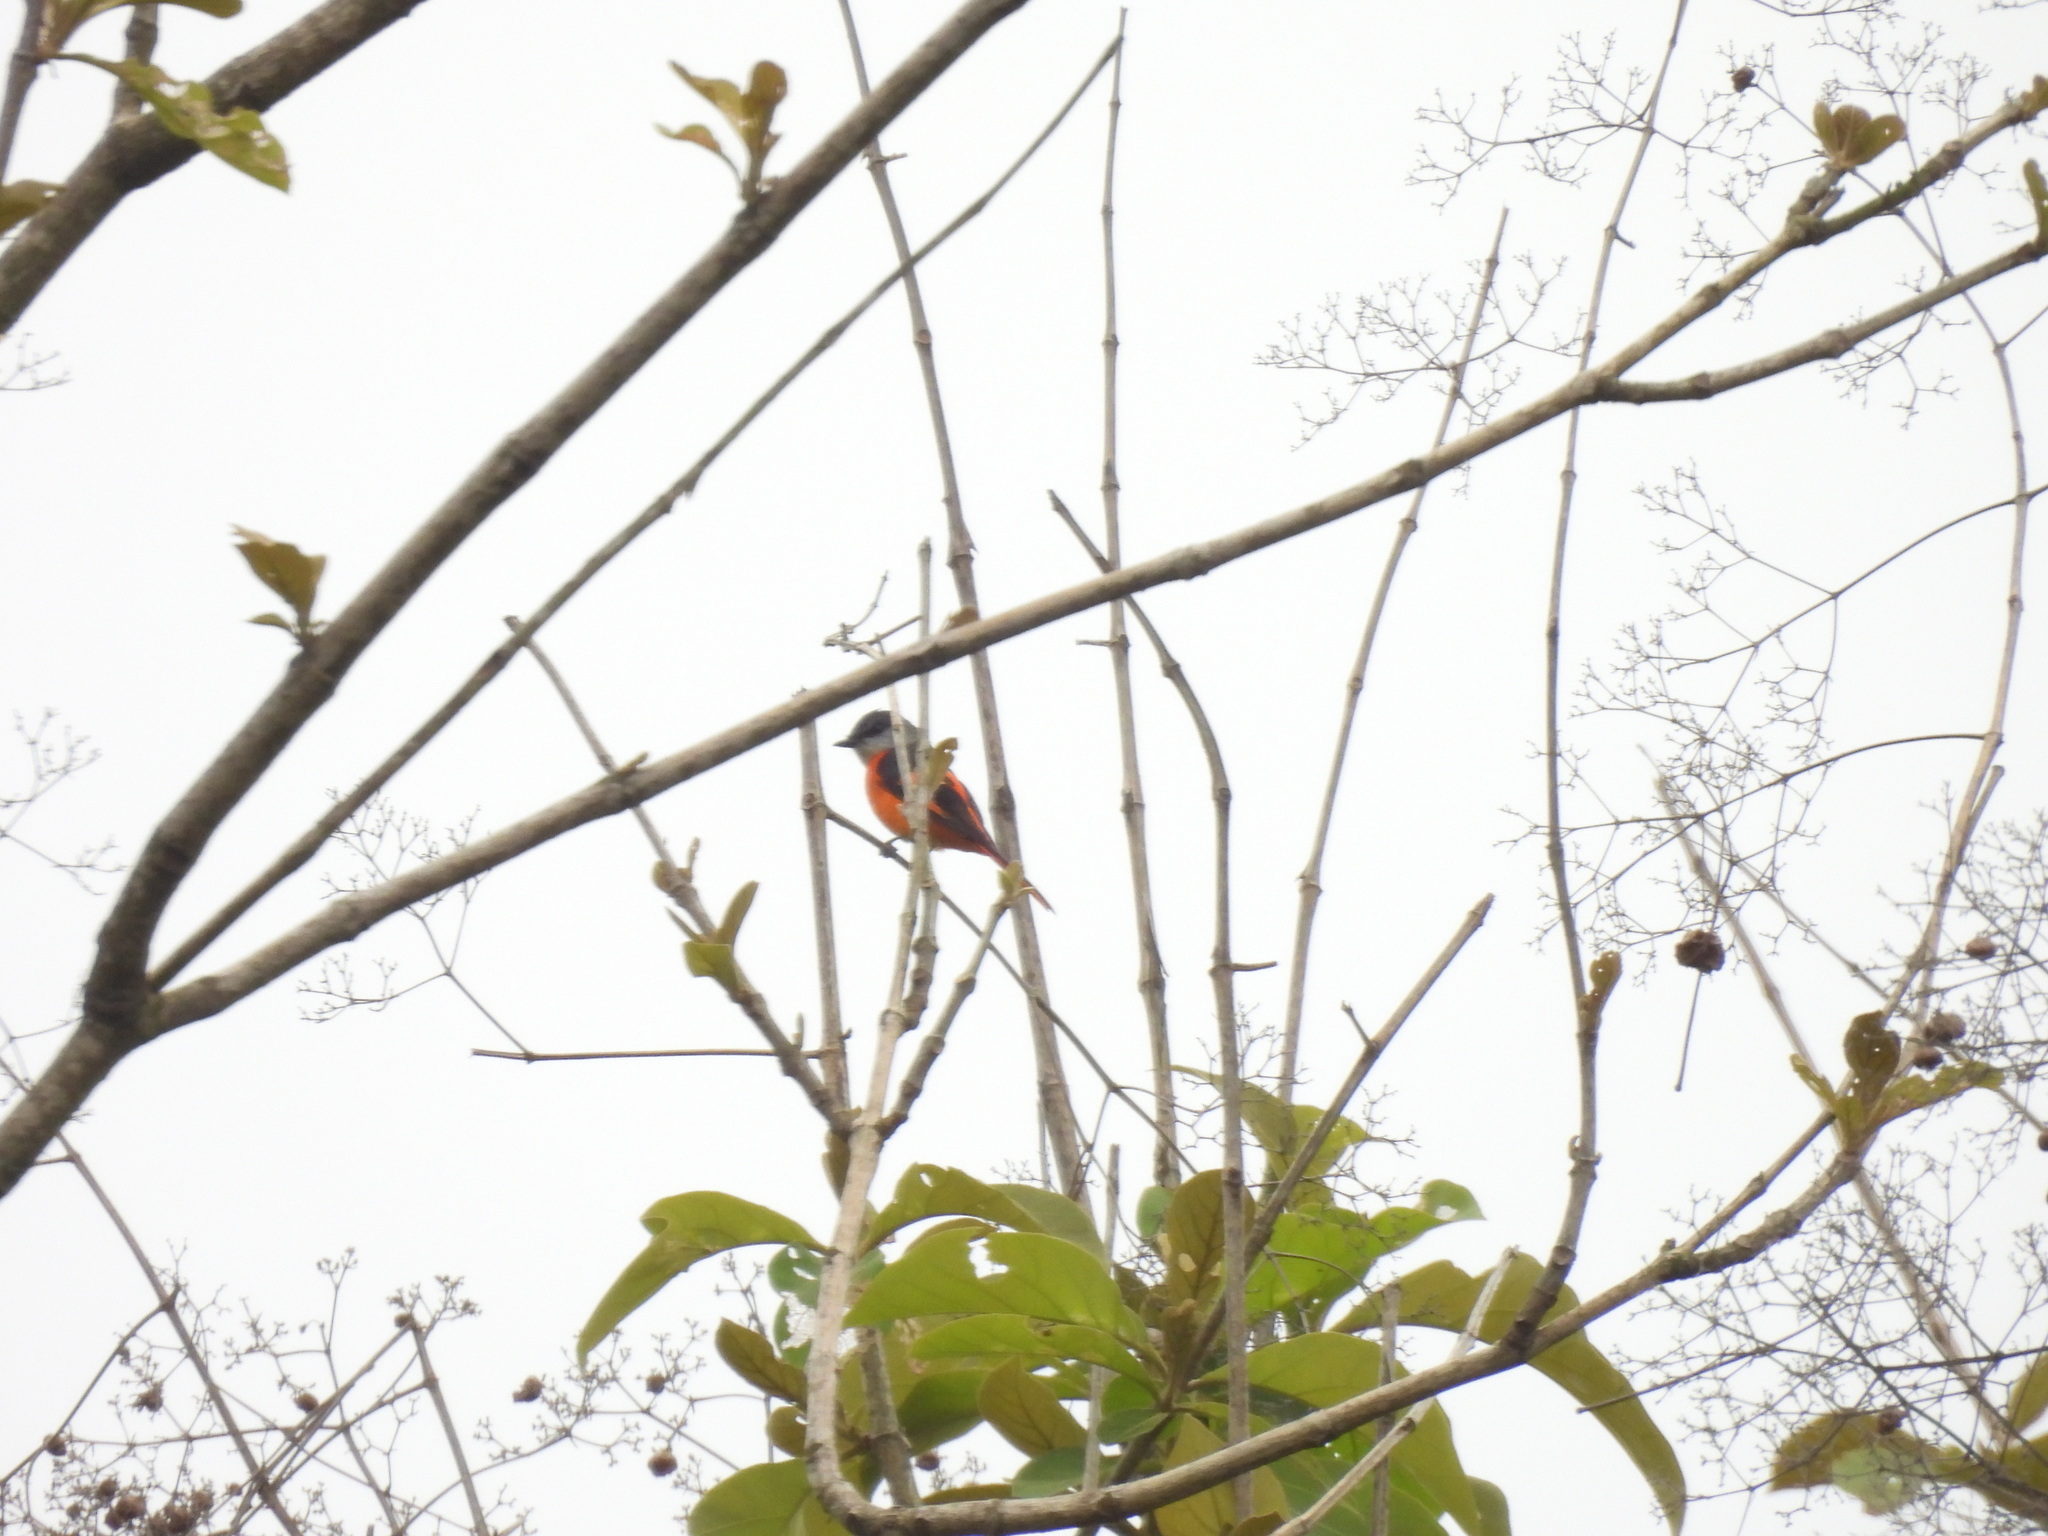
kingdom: Animalia
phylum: Chordata
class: Aves
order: Passeriformes
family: Campephagidae
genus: Pericrocotus
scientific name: Pericrocotus solaris
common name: Grey-chinned minivet
